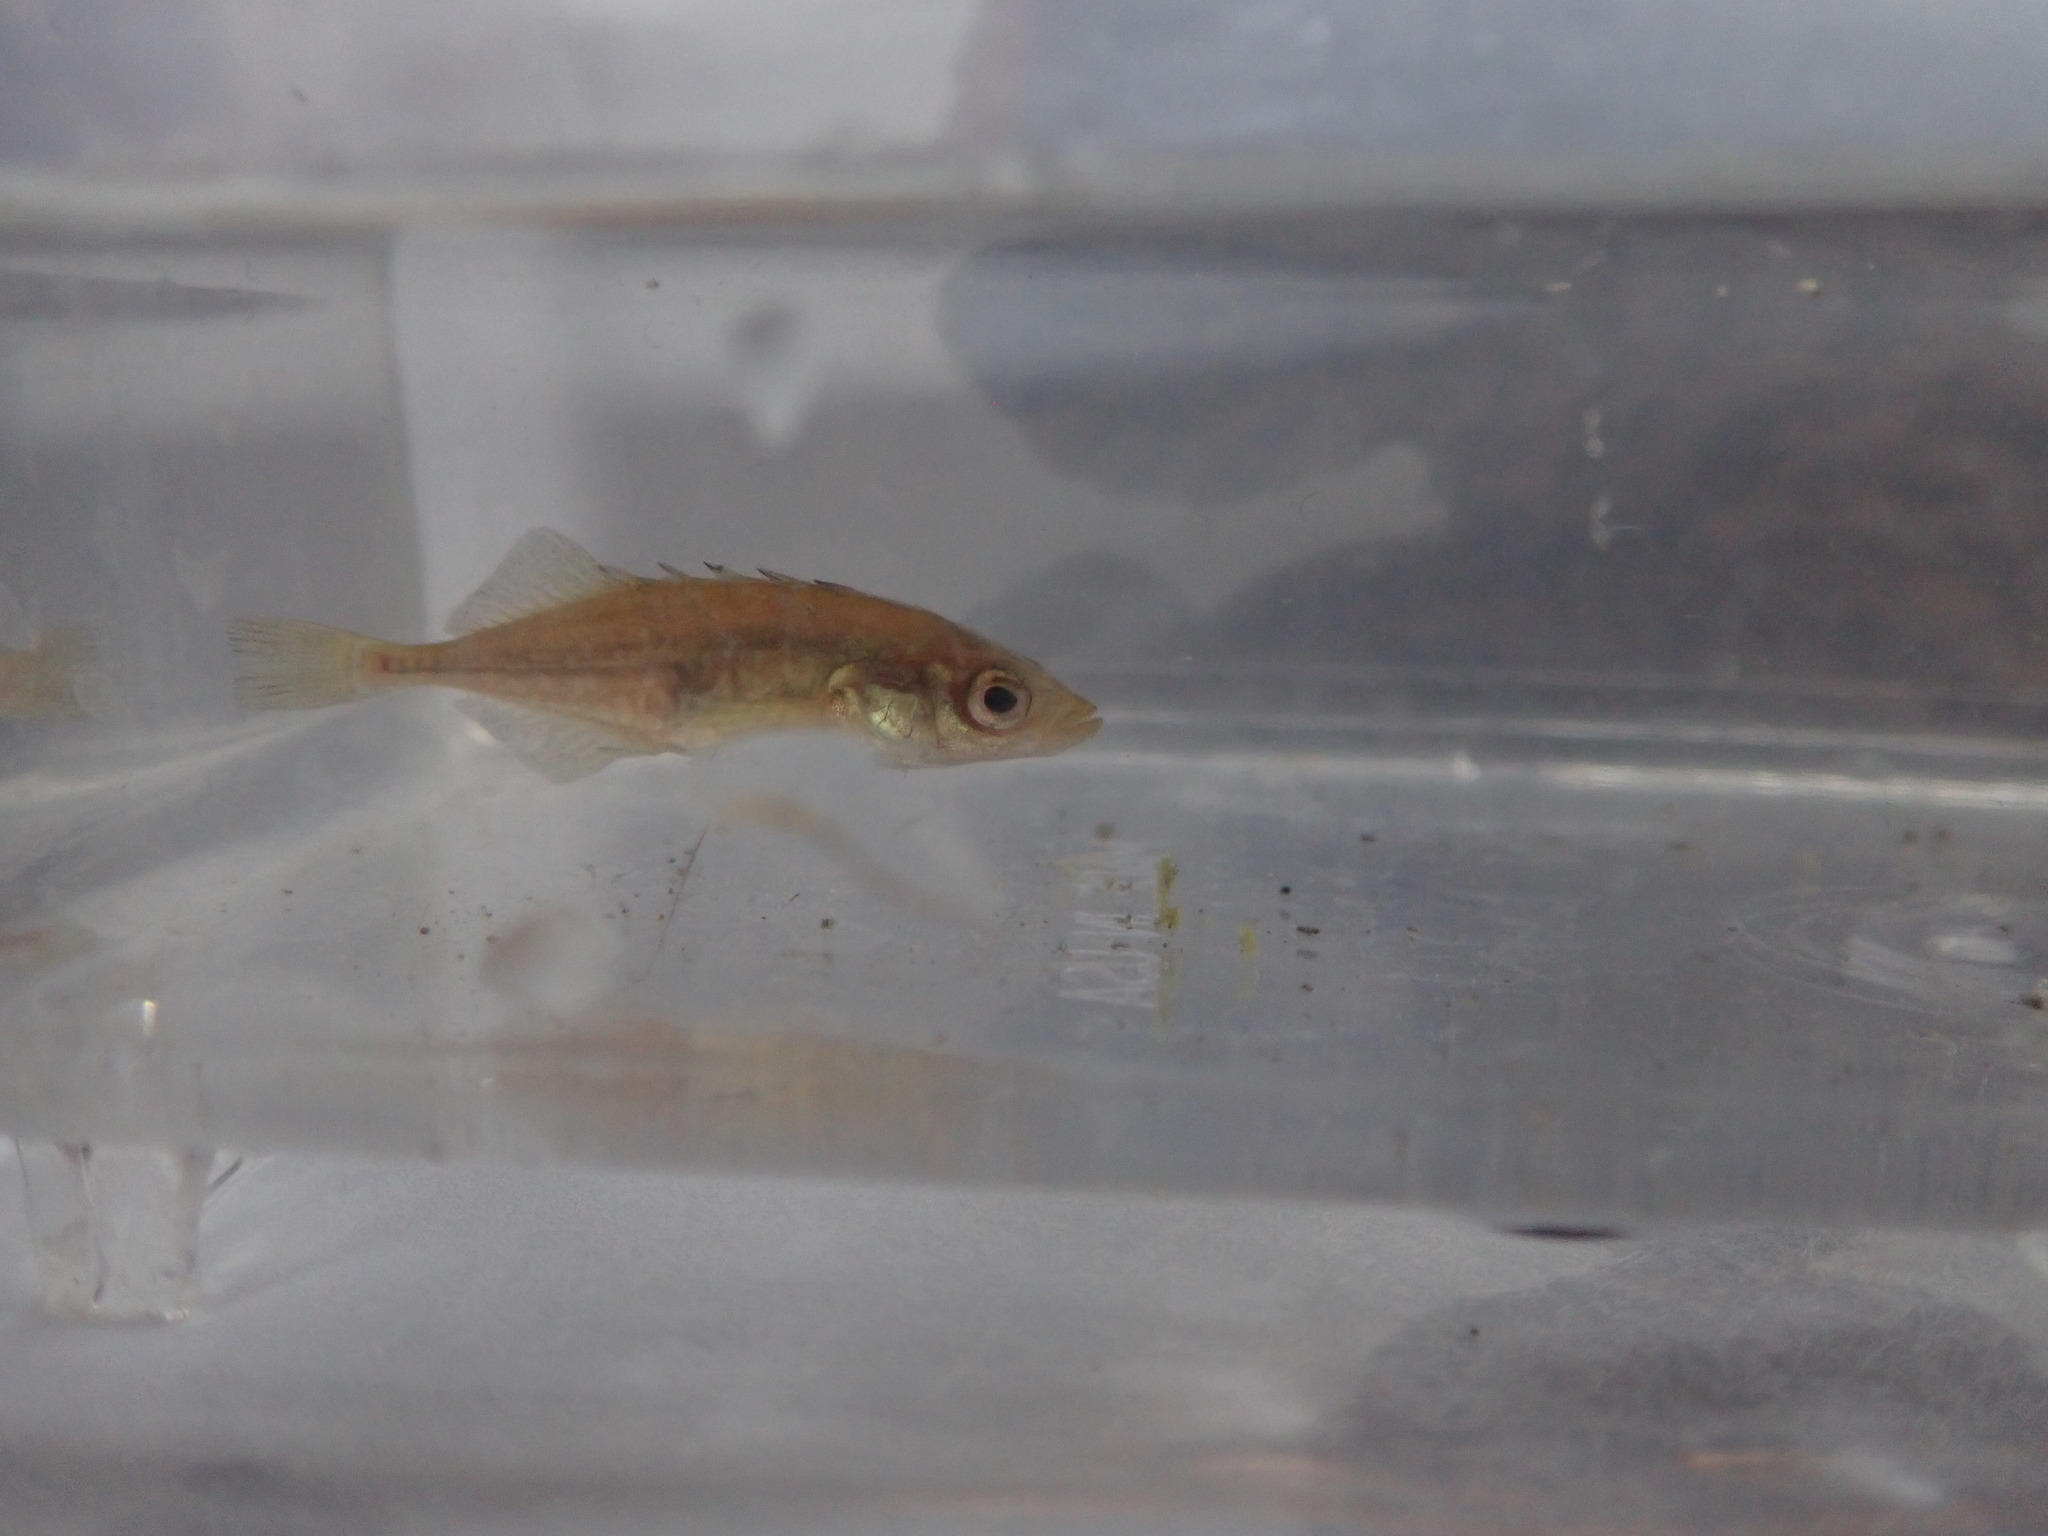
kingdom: Animalia
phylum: Chordata
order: Gasterosteiformes
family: Gasterosteidae
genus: Culaea
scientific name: Culaea inconstans
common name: Brook stickleback
